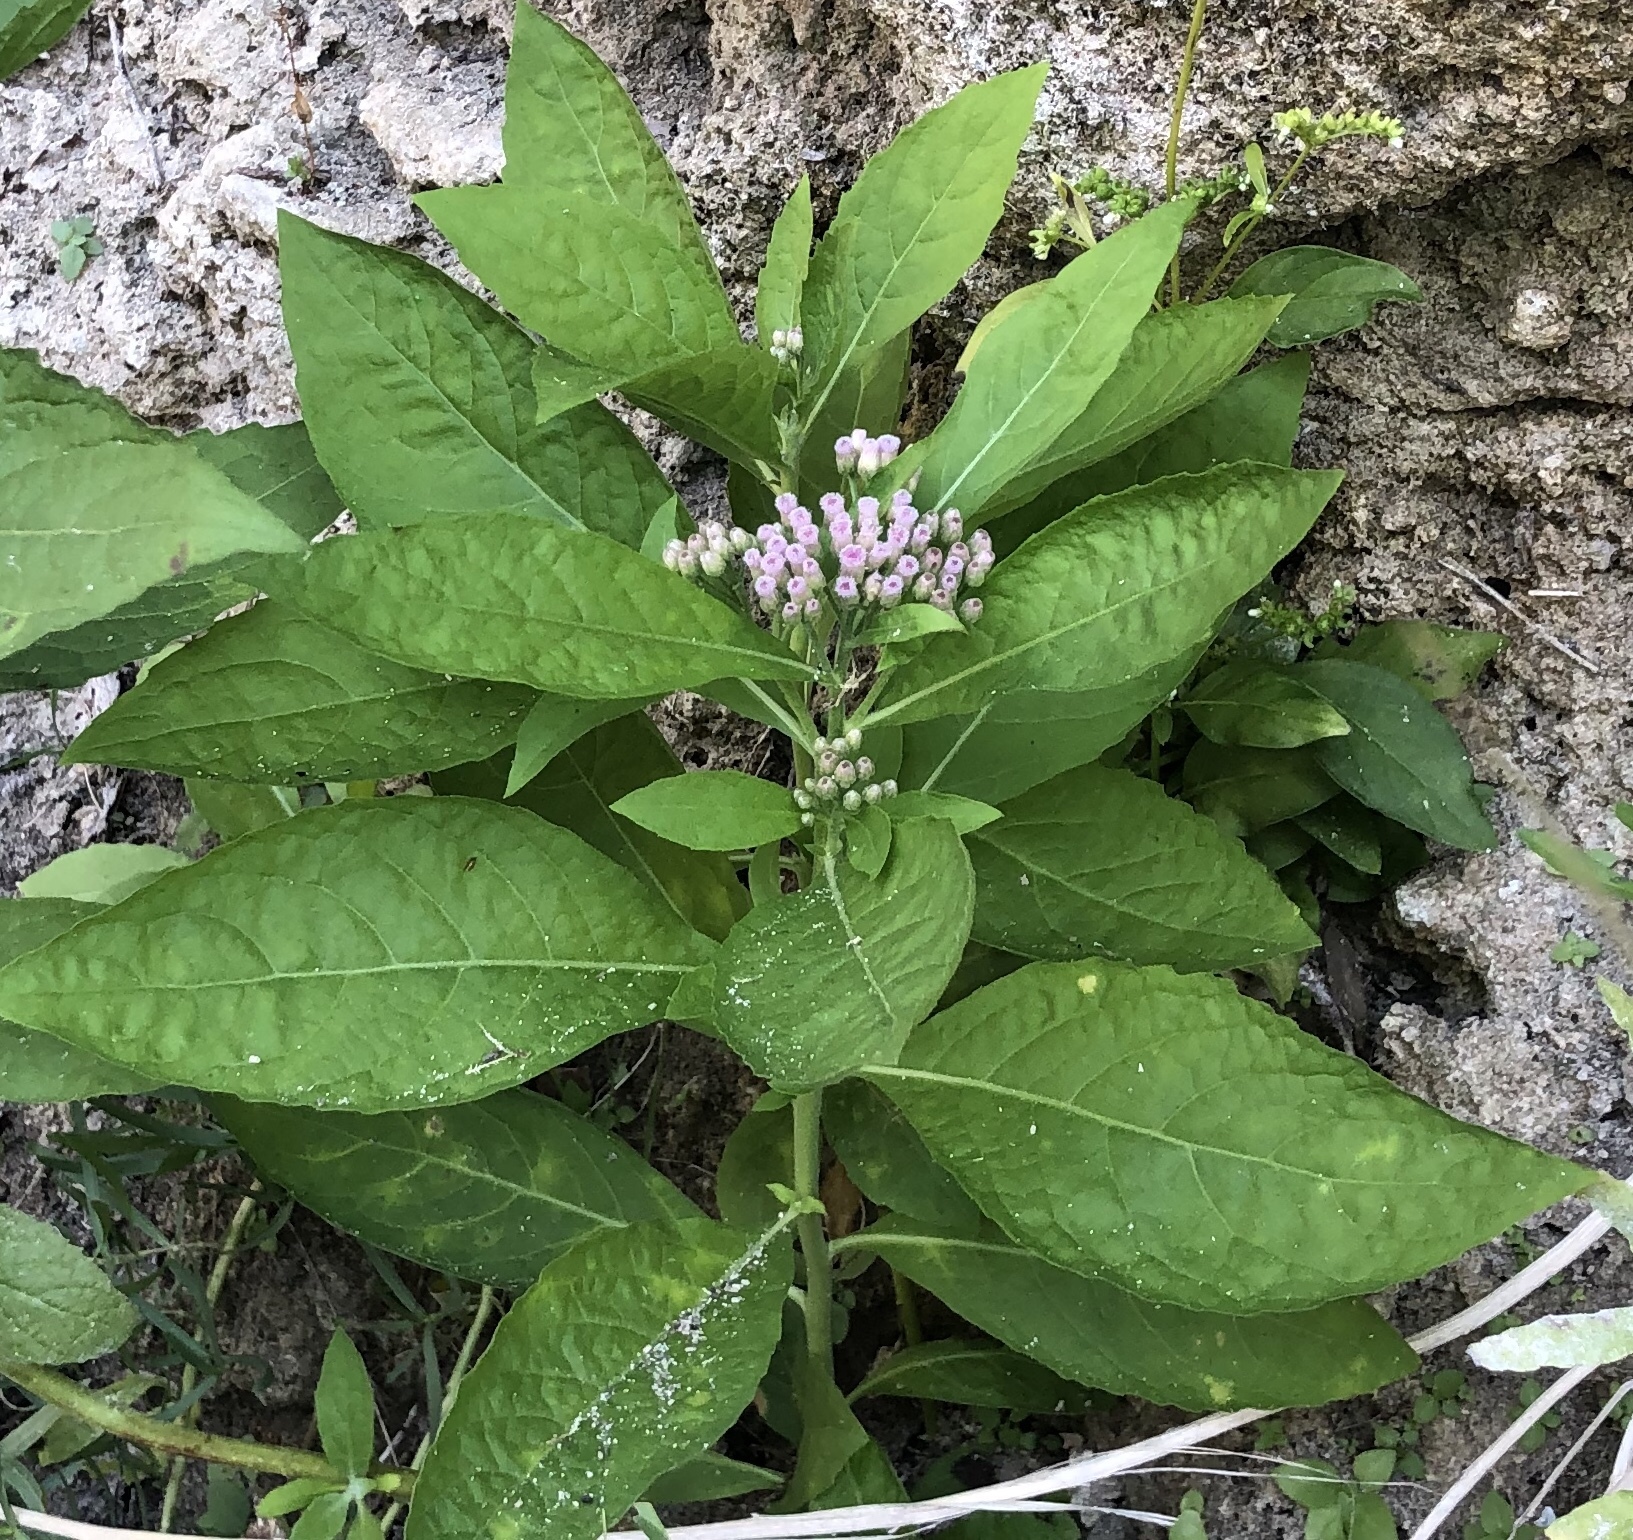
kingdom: Plantae
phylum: Tracheophyta
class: Magnoliopsida
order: Asterales
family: Asteraceae
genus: Pluchea
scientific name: Pluchea camphorata
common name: Camphor pluchea
